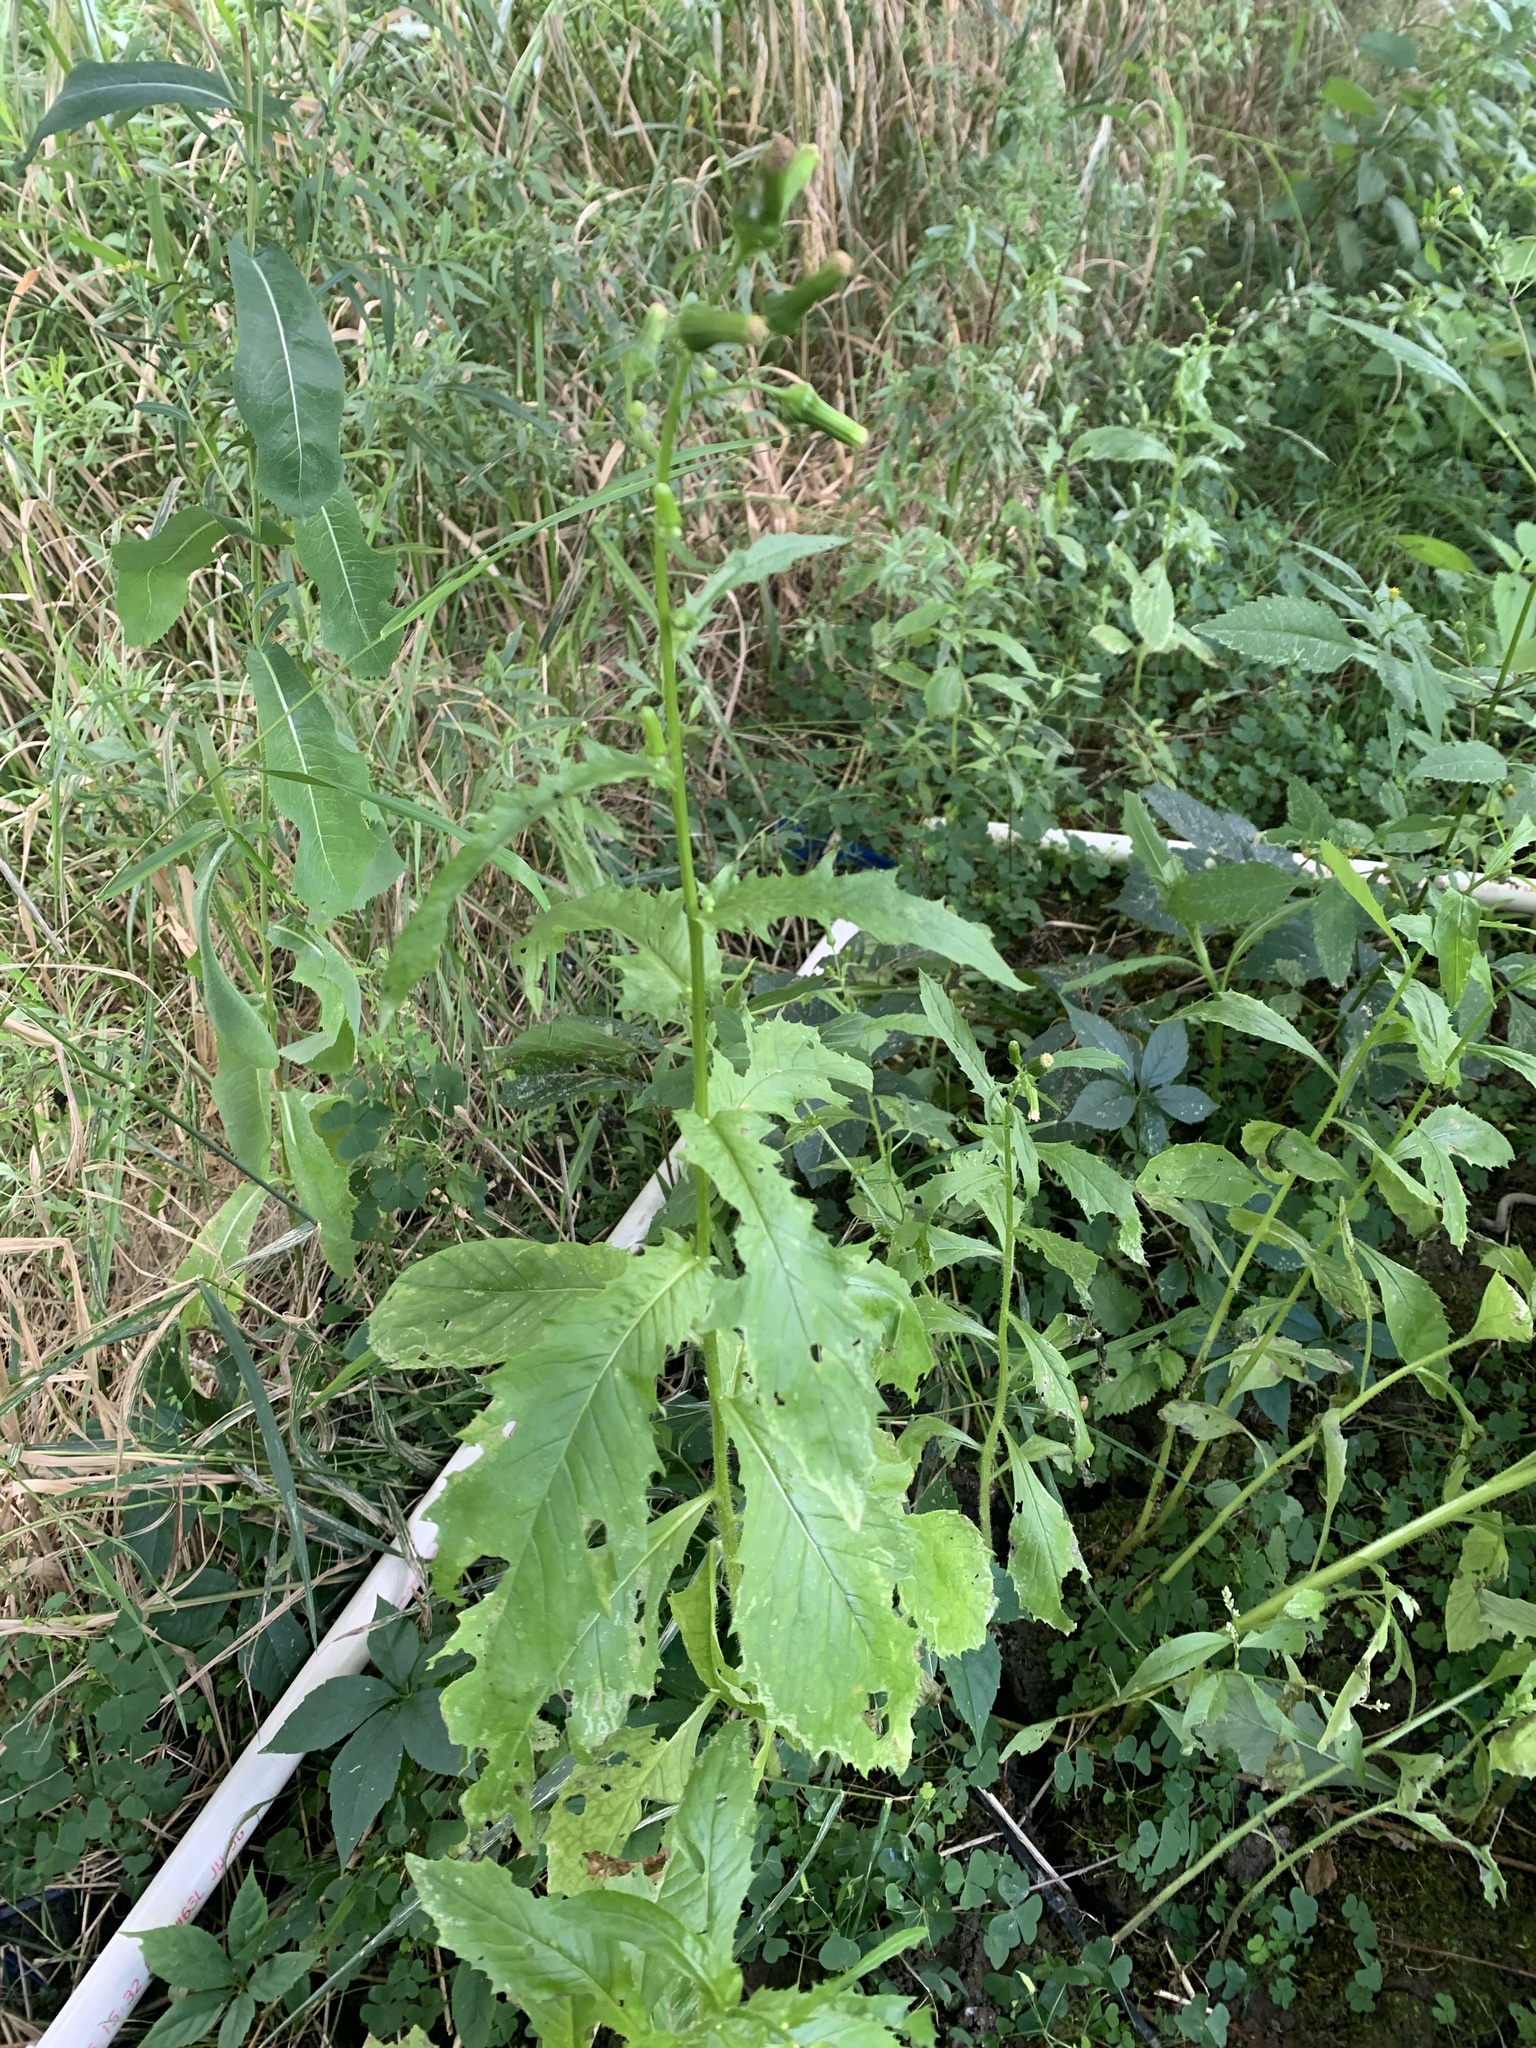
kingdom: Plantae
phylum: Tracheophyta
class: Magnoliopsida
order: Asterales
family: Asteraceae
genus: Erechtites
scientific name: Erechtites hieraciifolius
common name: American burnweed
